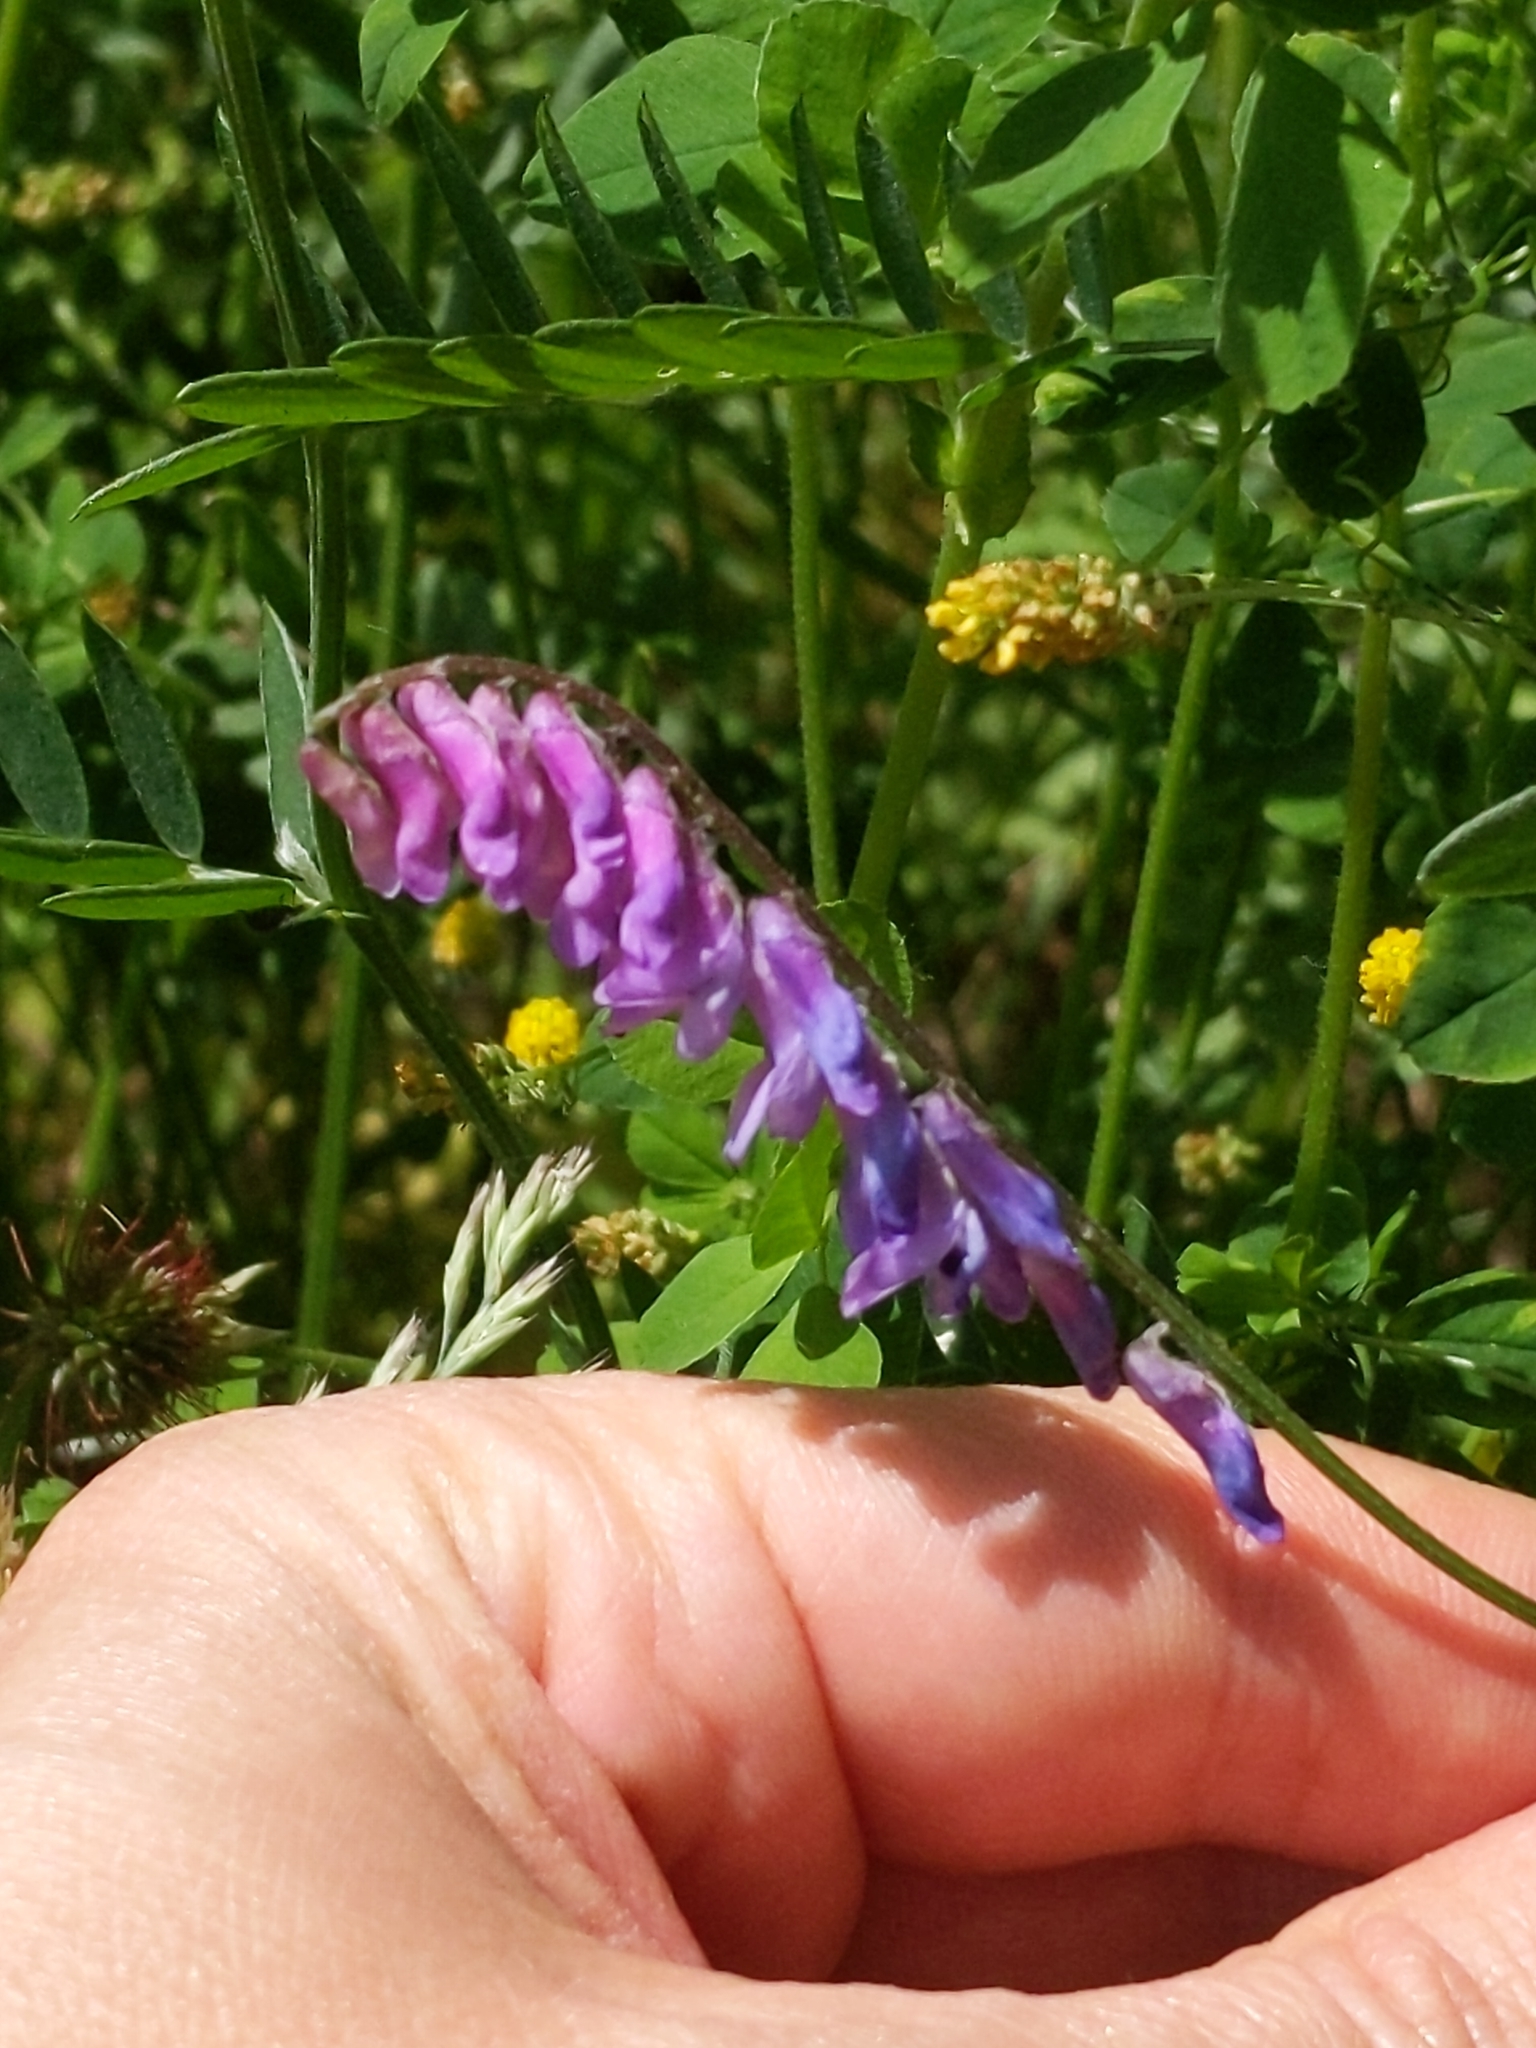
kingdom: Plantae
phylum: Tracheophyta
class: Magnoliopsida
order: Fabales
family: Fabaceae
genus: Vicia
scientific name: Vicia cracca
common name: Bird vetch
